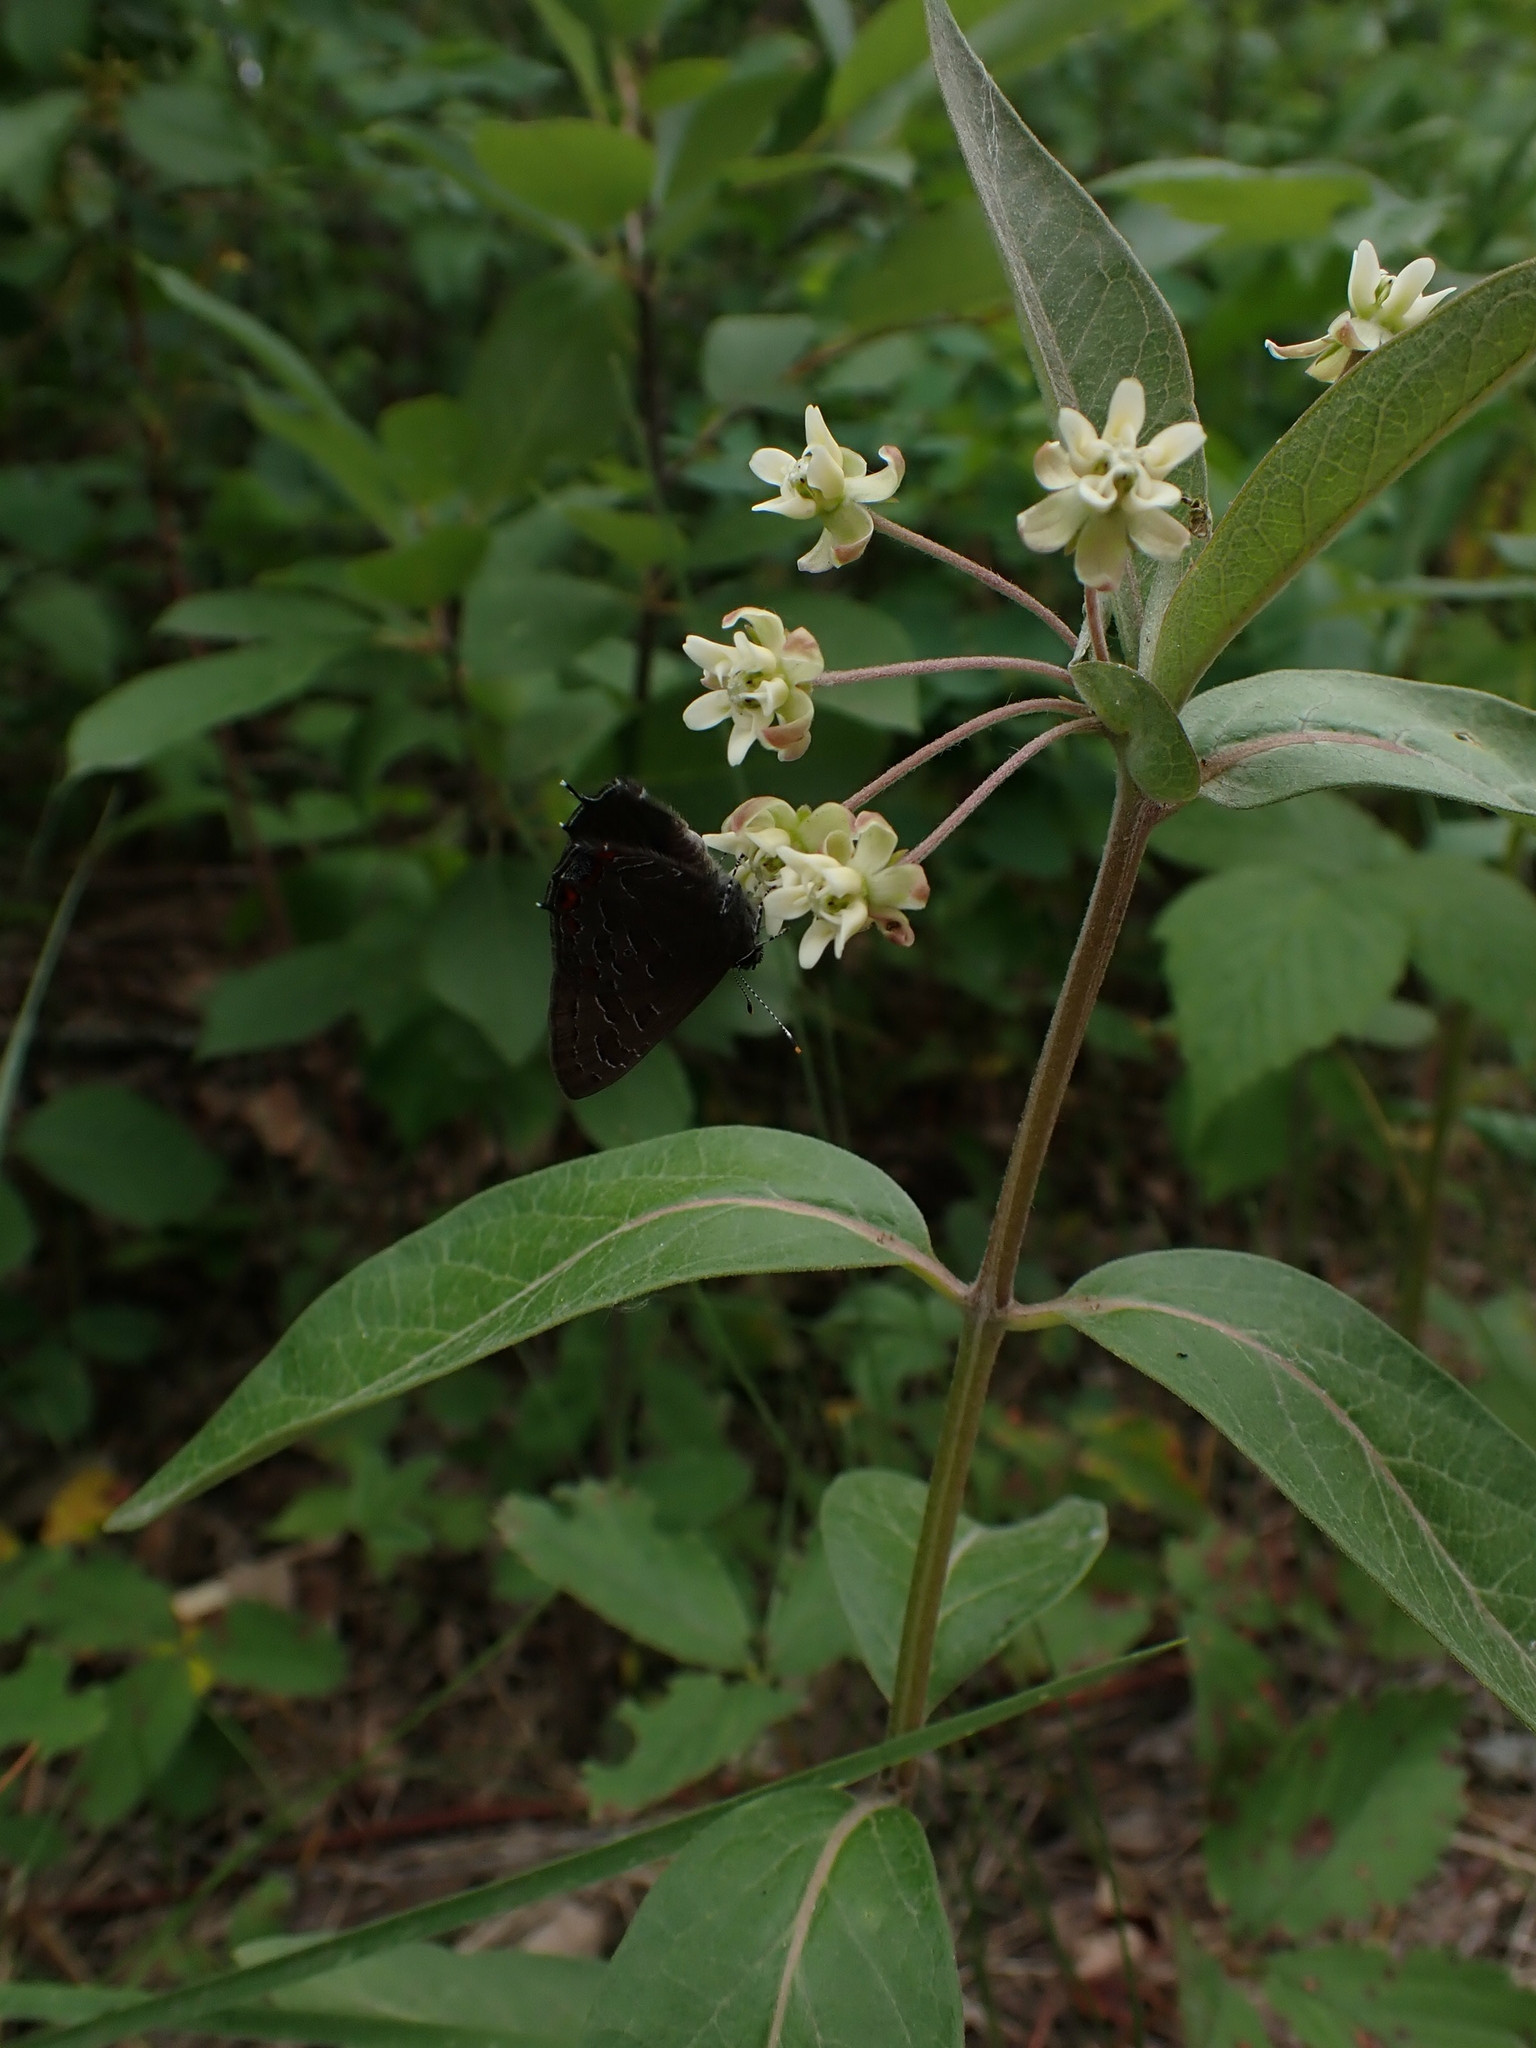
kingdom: Plantae
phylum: Tracheophyta
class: Magnoliopsida
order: Gentianales
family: Apocynaceae
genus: Asclepias
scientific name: Asclepias ovalifolia
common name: Dwarf milkweed
